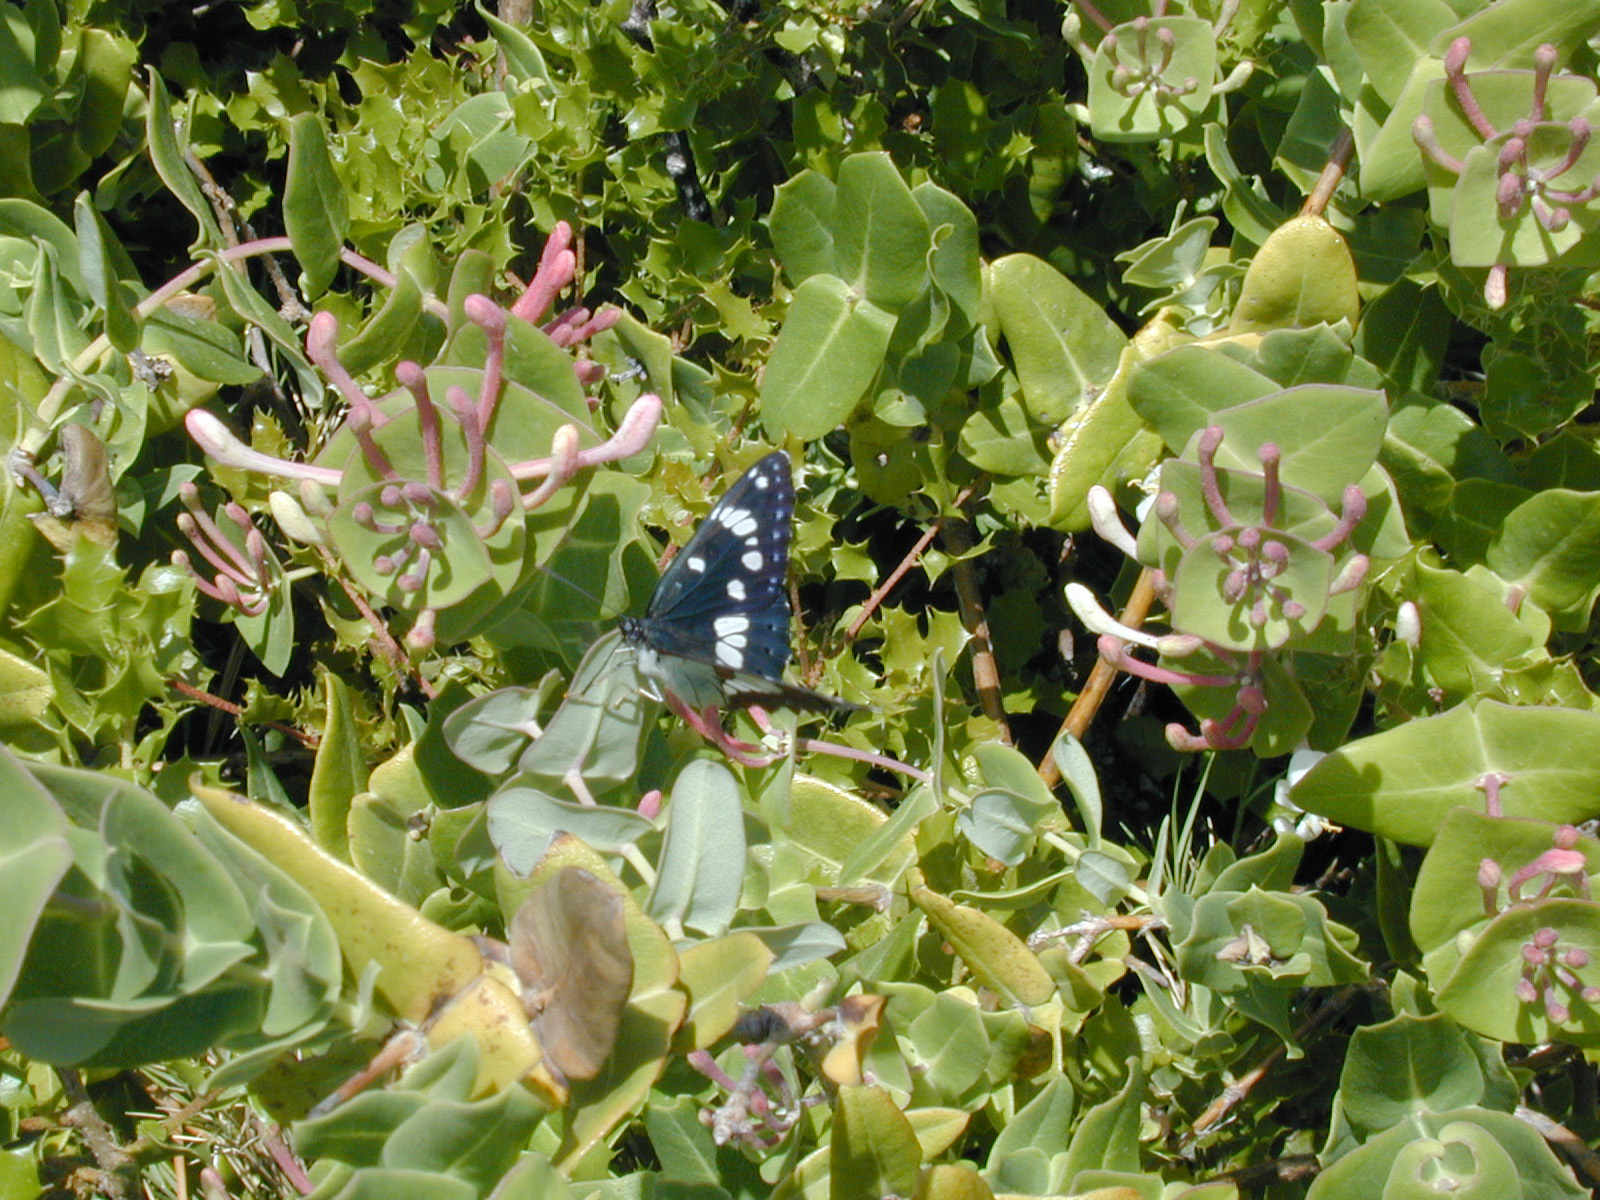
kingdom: Animalia
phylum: Arthropoda
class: Insecta
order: Lepidoptera
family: Nymphalidae
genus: Limenitis
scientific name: Limenitis reducta
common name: Southern white admiral
